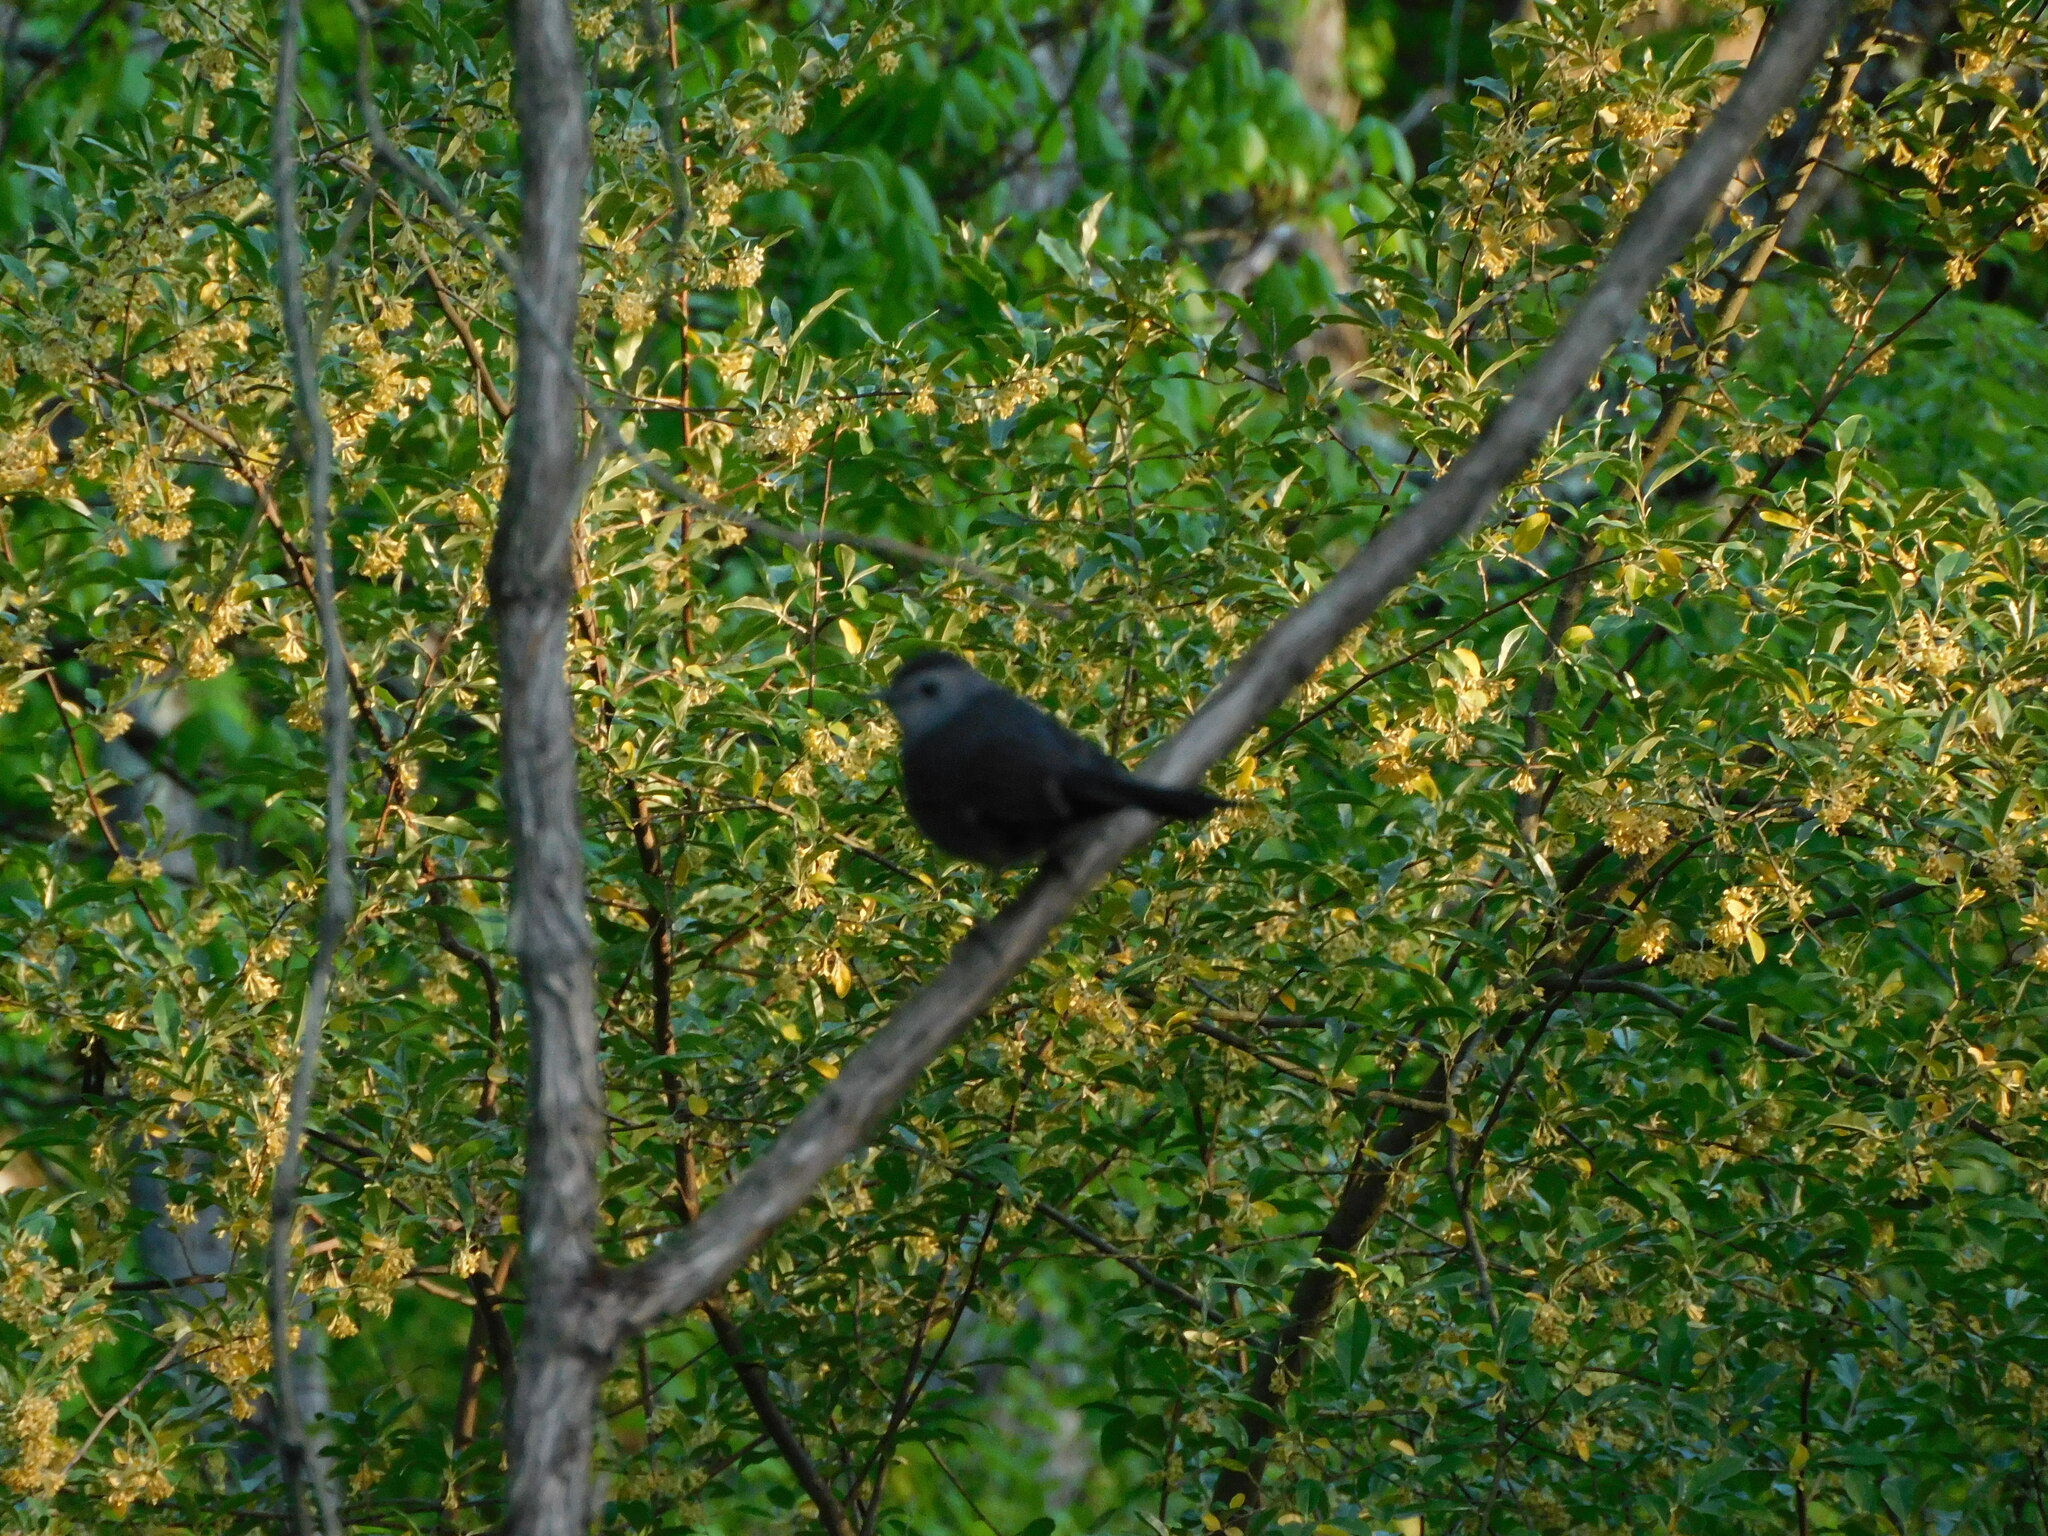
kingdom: Animalia
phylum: Chordata
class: Aves
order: Passeriformes
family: Mimidae
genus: Dumetella
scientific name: Dumetella carolinensis
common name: Gray catbird
